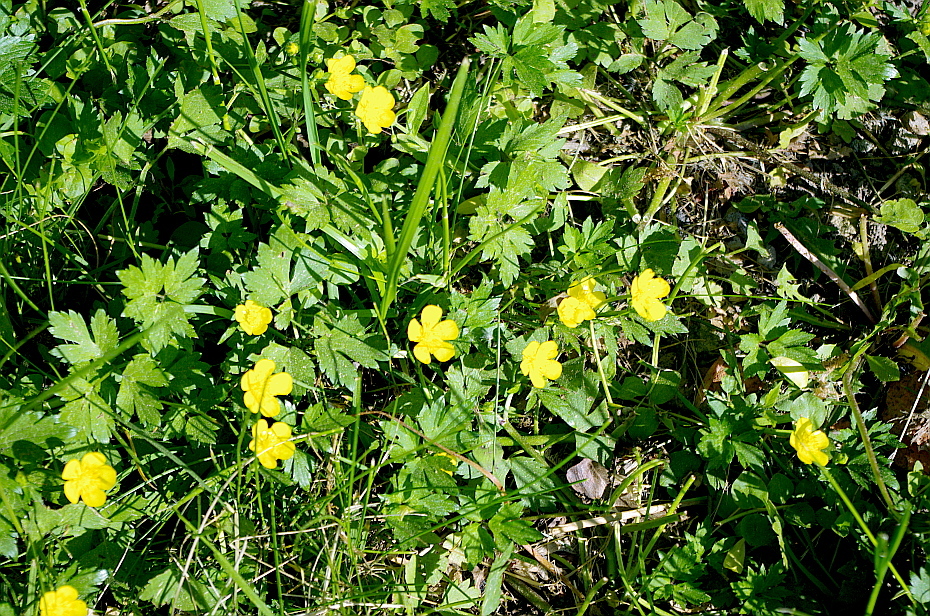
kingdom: Plantae
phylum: Tracheophyta
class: Magnoliopsida
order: Ranunculales
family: Ranunculaceae
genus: Ranunculus
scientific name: Ranunculus repens
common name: Creeping buttercup
